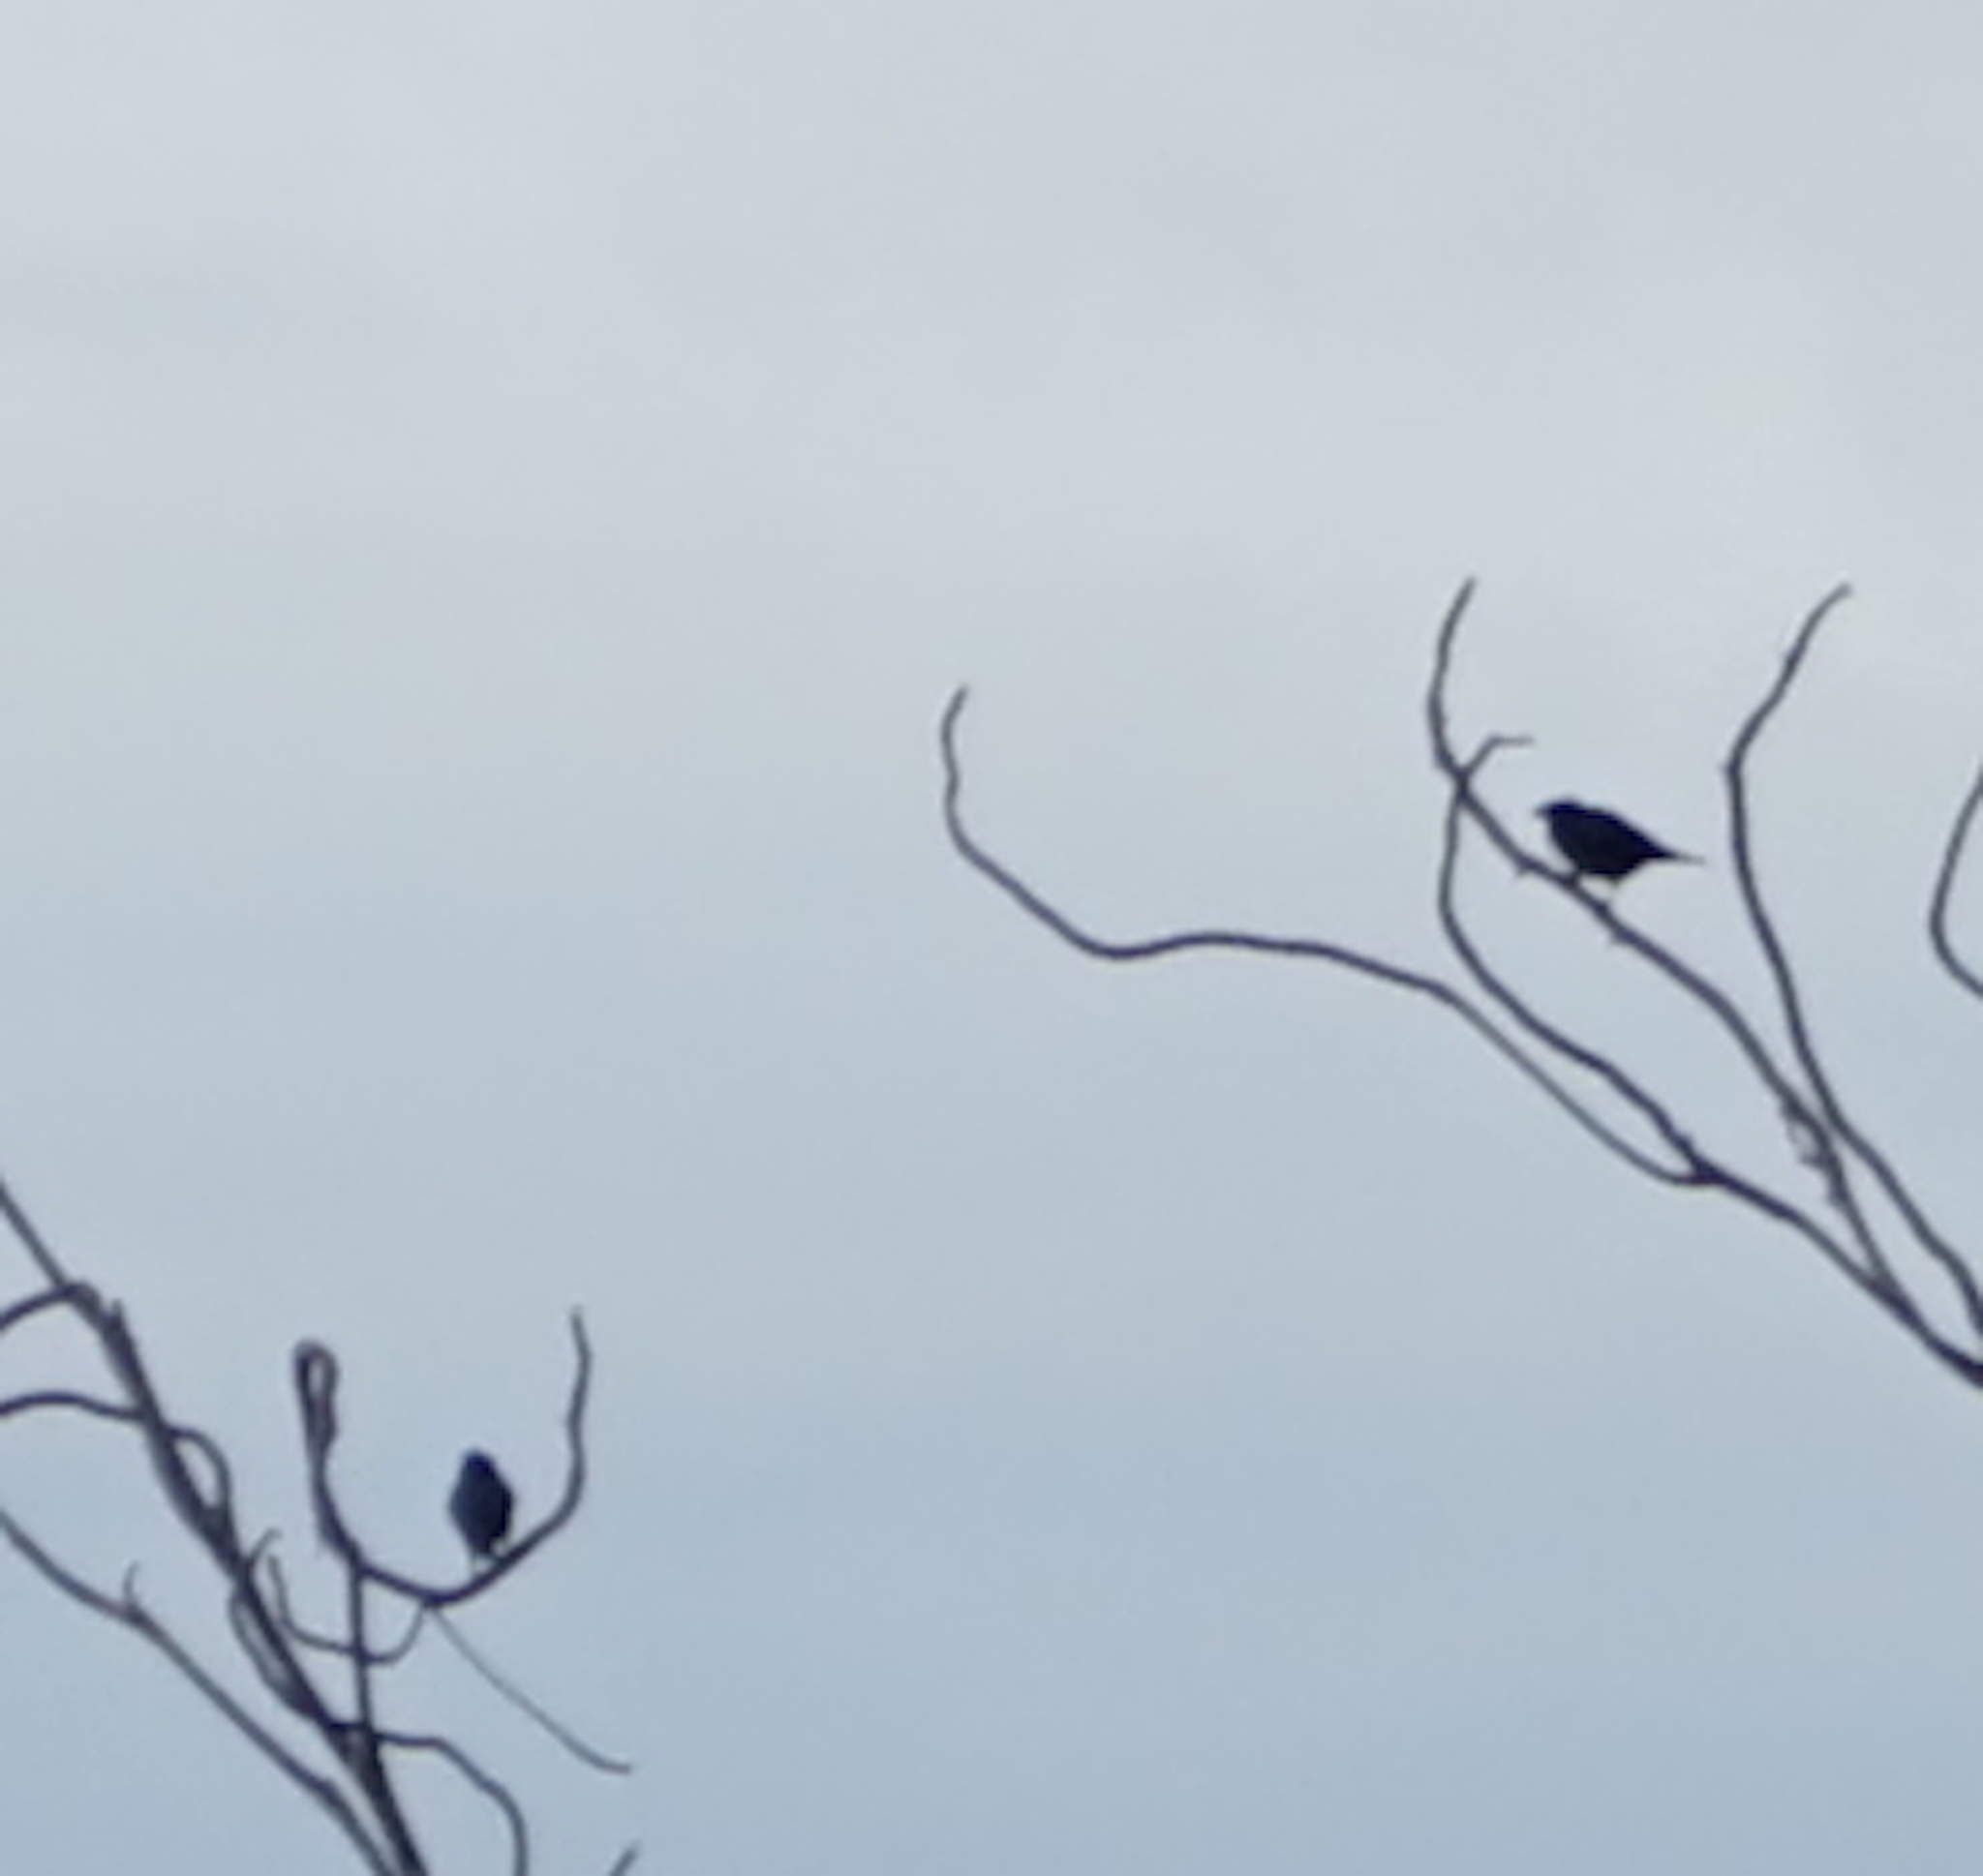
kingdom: Animalia
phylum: Chordata
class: Aves
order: Passeriformes
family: Sturnidae
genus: Aplonis
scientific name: Aplonis panayensis
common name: Asian glossy starling
